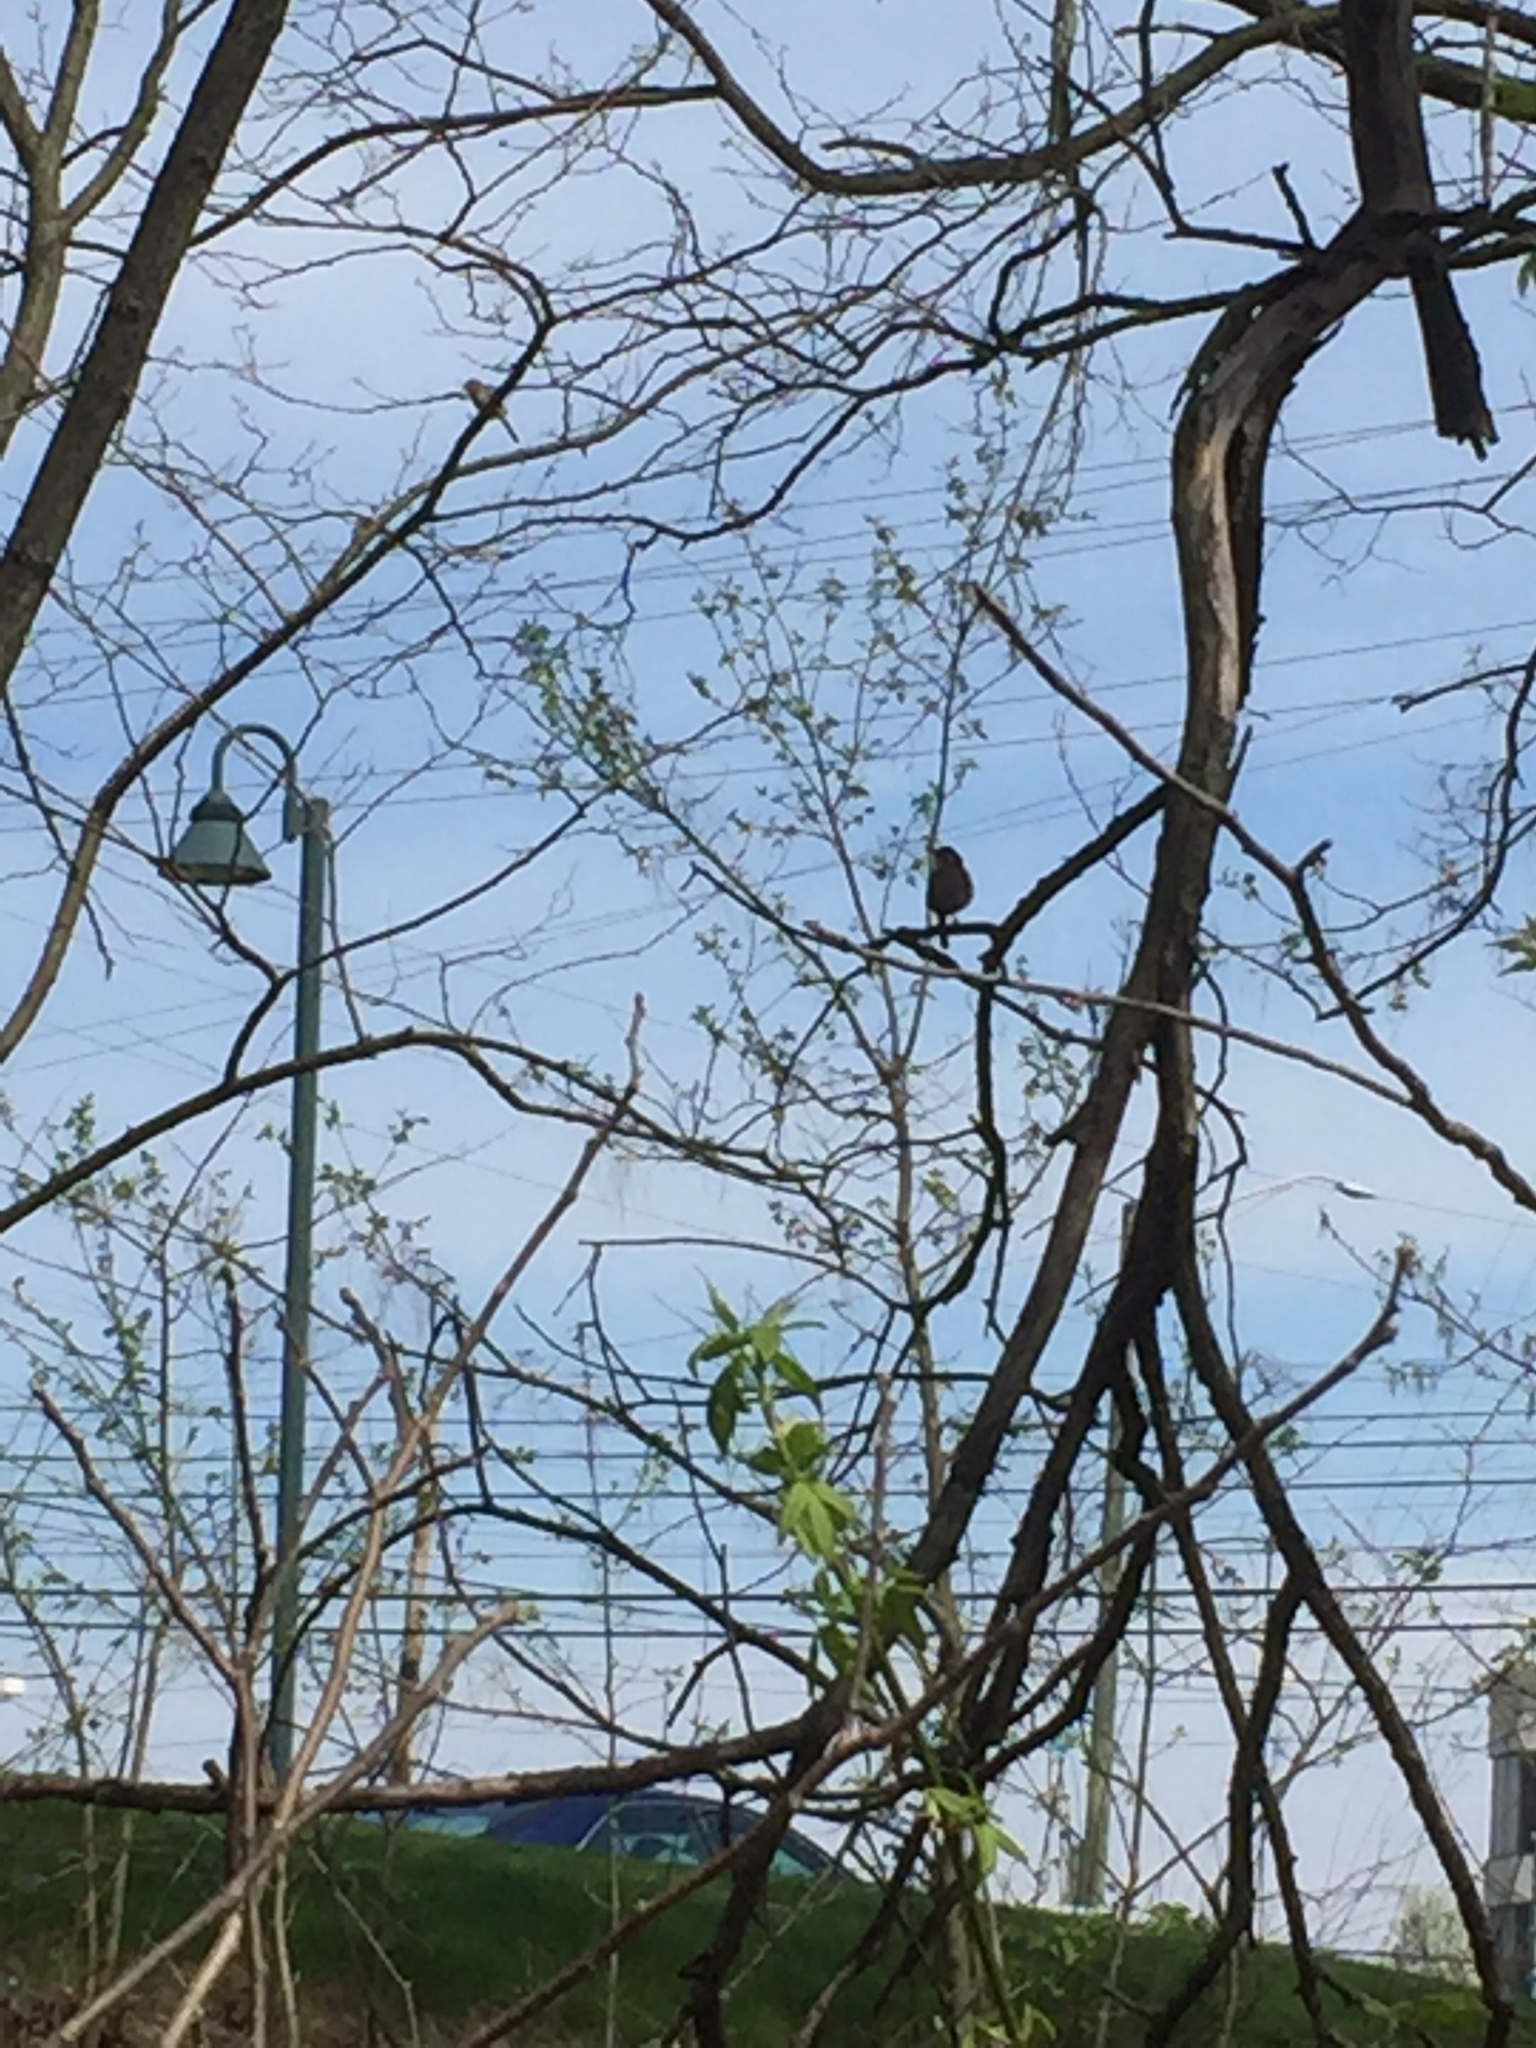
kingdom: Animalia
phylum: Chordata
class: Aves
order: Passeriformes
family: Troglodytidae
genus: Thryothorus
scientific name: Thryothorus ludovicianus
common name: Carolina wren
